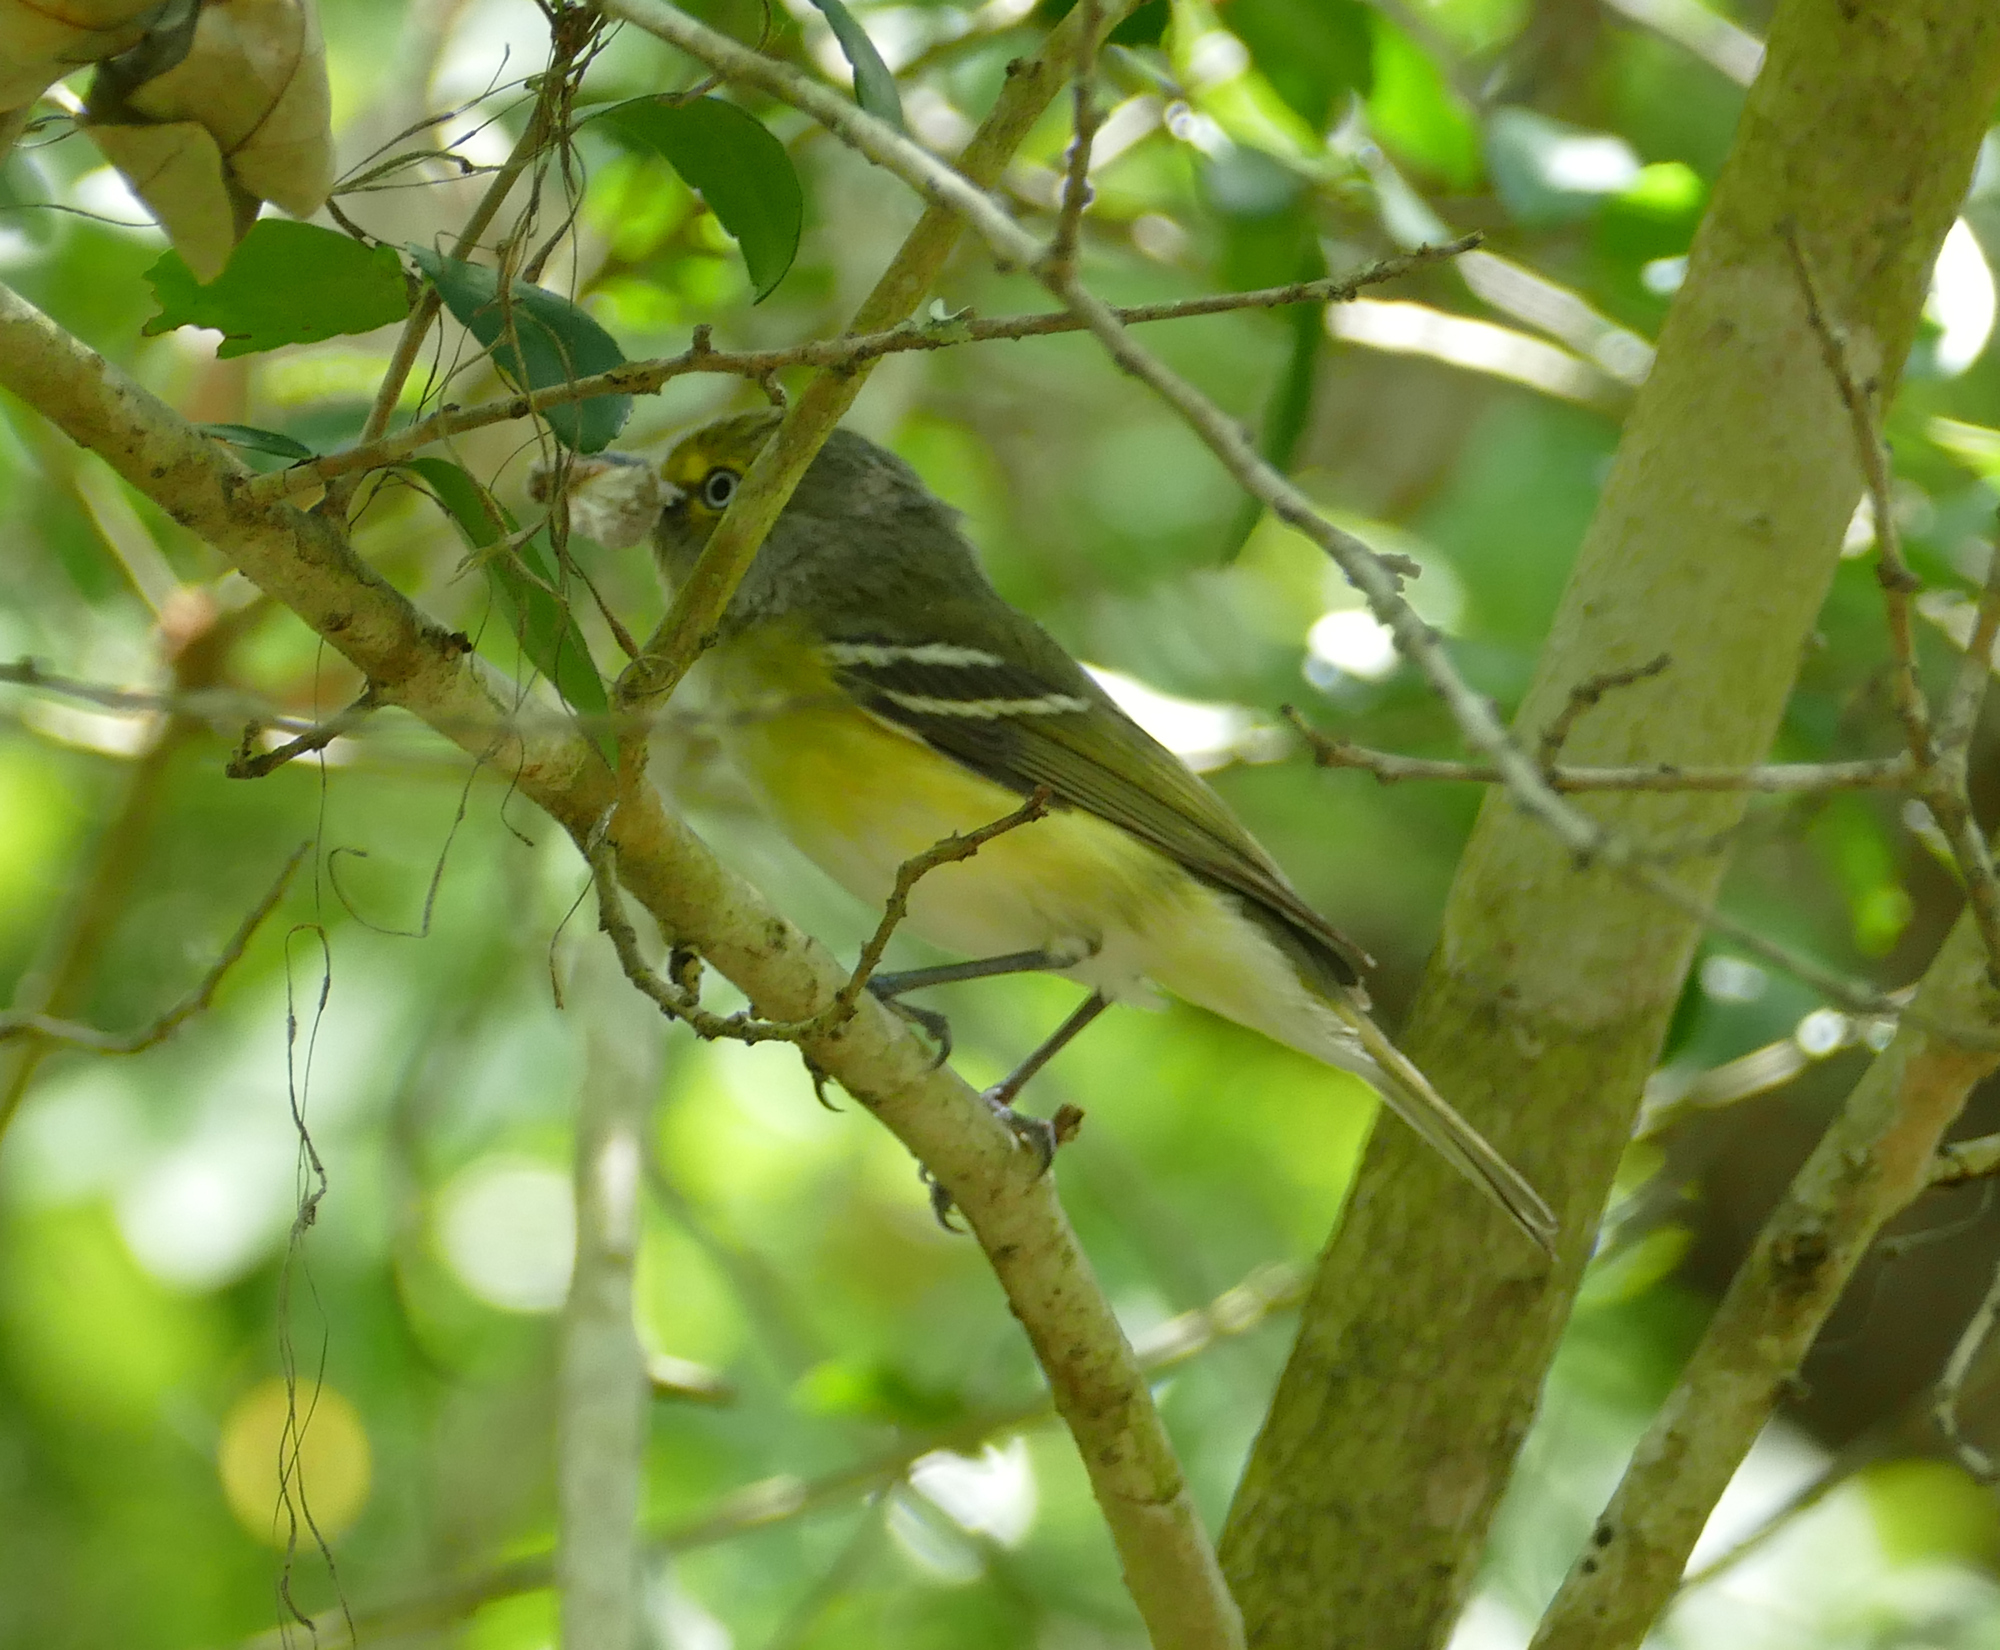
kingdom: Animalia
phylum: Chordata
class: Aves
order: Passeriformes
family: Vireonidae
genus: Vireo
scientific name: Vireo griseus
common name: White-eyed vireo
